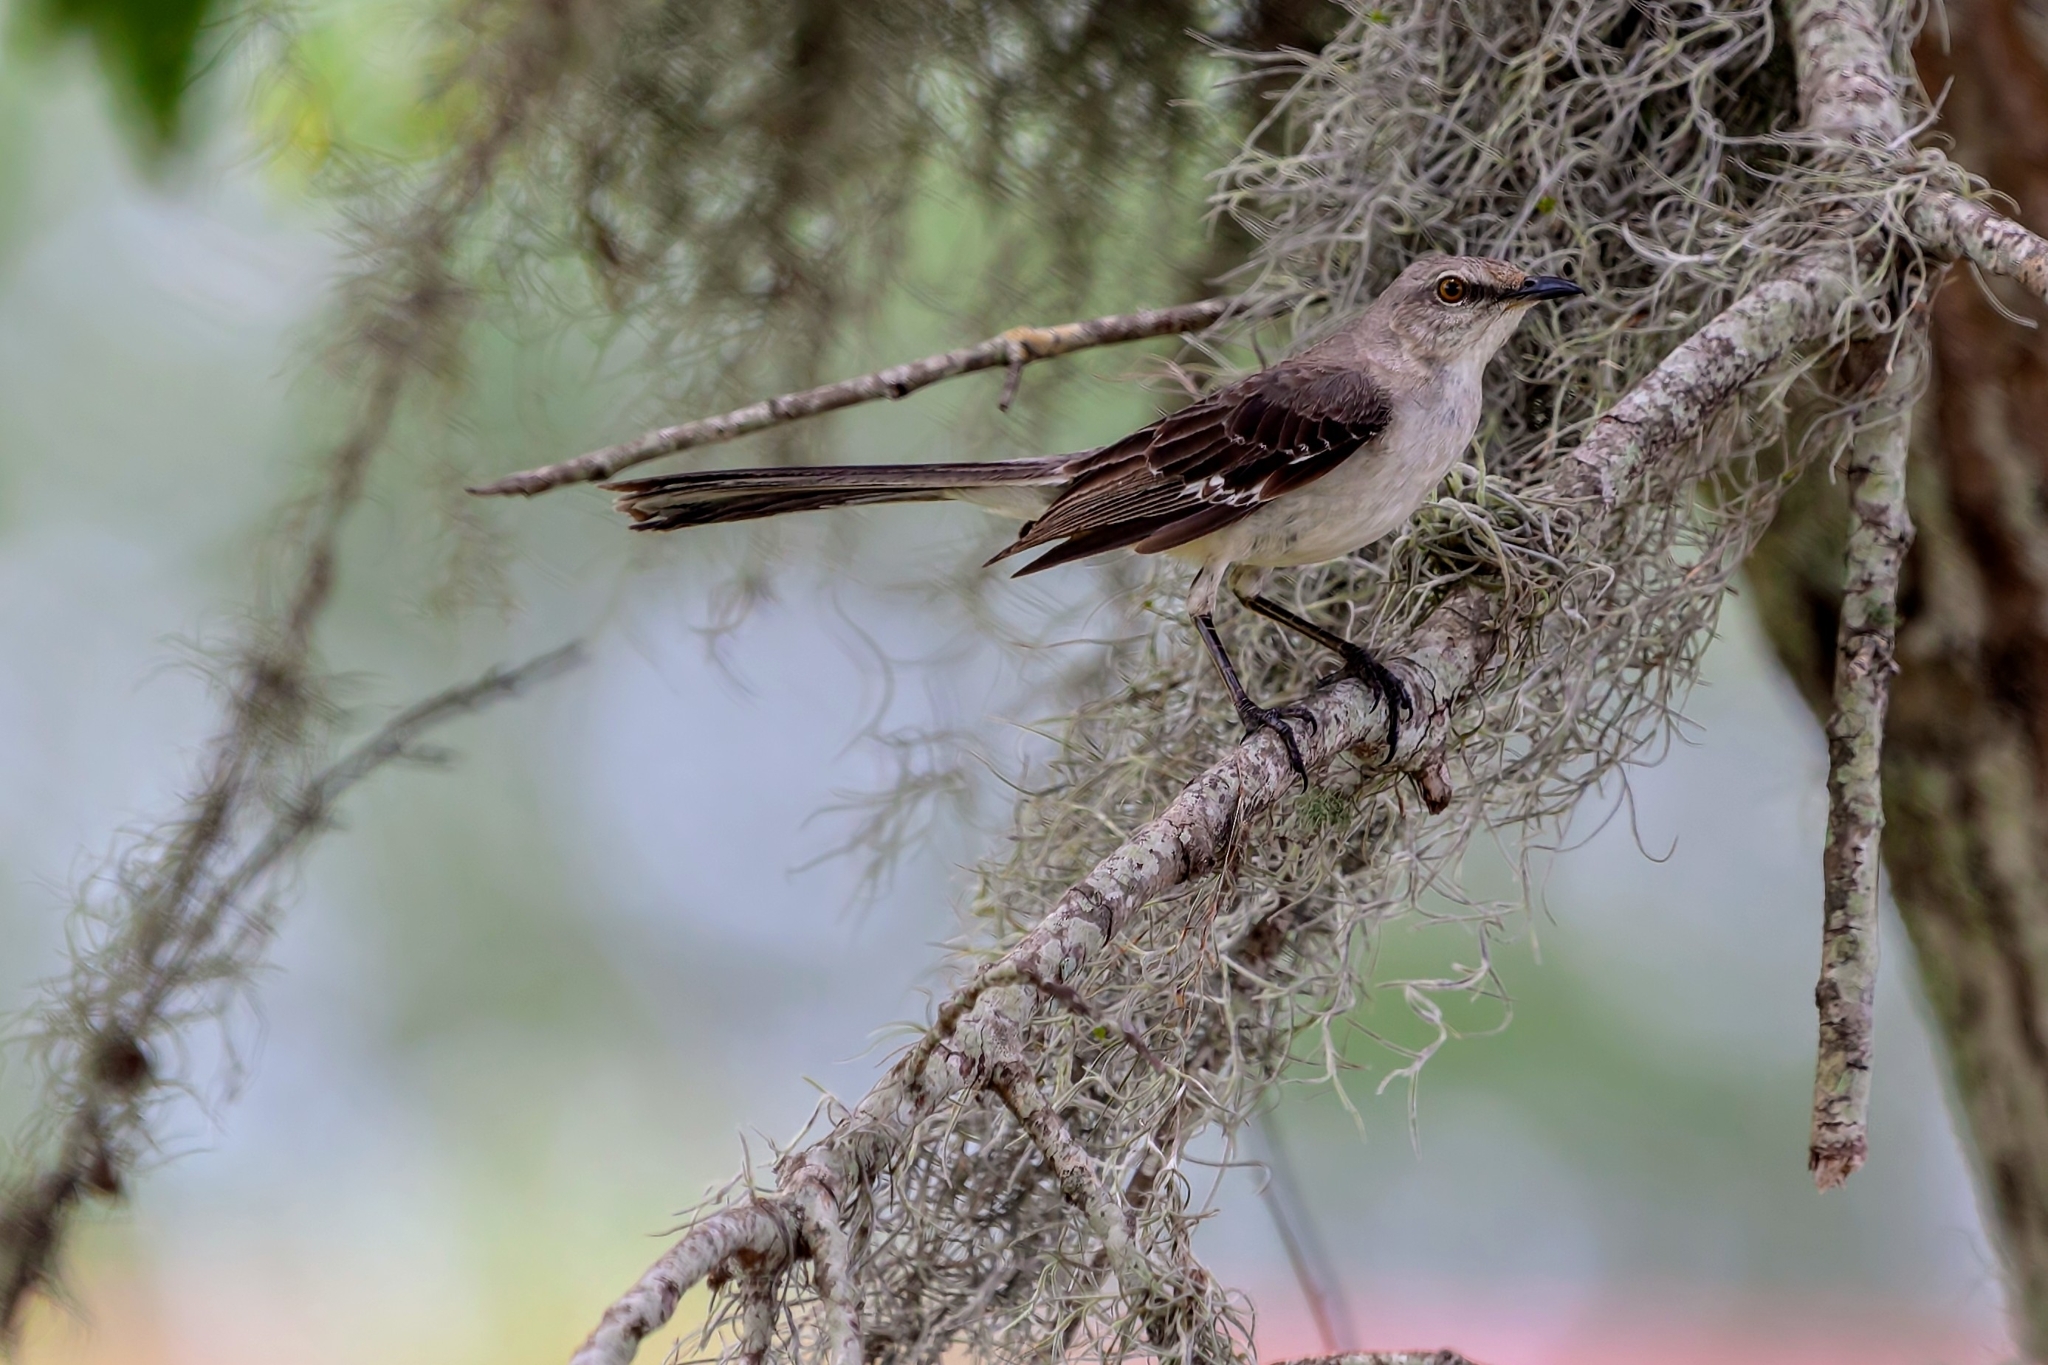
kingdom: Animalia
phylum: Chordata
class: Aves
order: Passeriformes
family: Mimidae
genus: Mimus
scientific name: Mimus polyglottos
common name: Northern mockingbird
